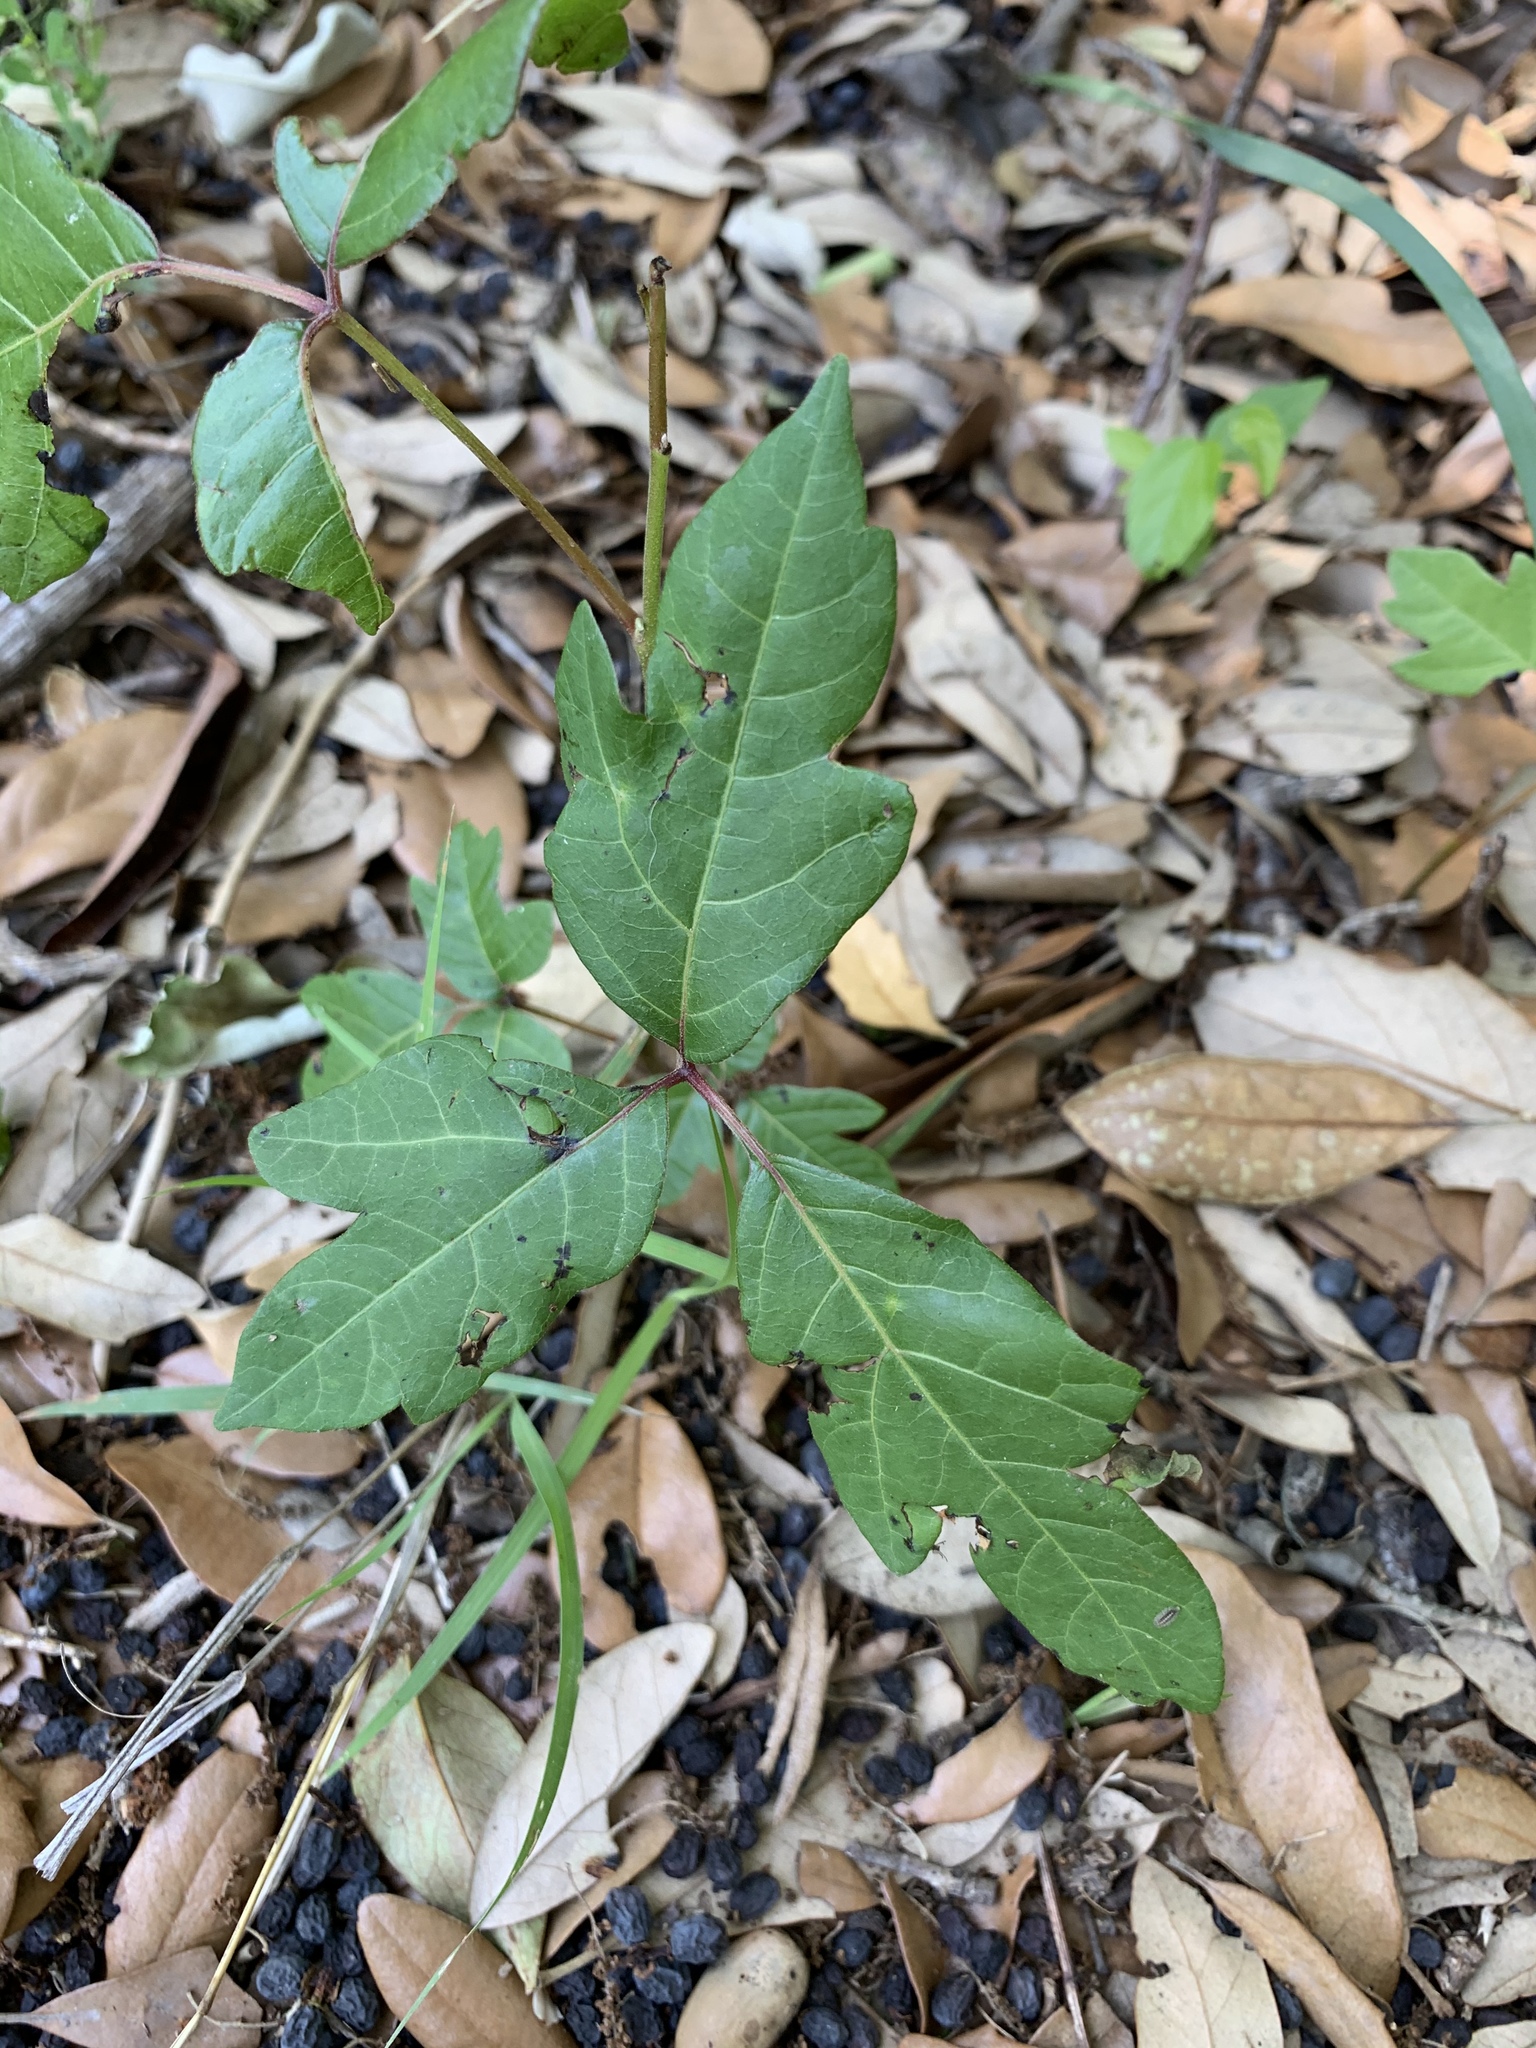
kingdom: Plantae
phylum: Tracheophyta
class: Magnoliopsida
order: Sapindales
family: Anacardiaceae
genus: Toxicodendron
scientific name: Toxicodendron radicans
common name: Poison ivy
